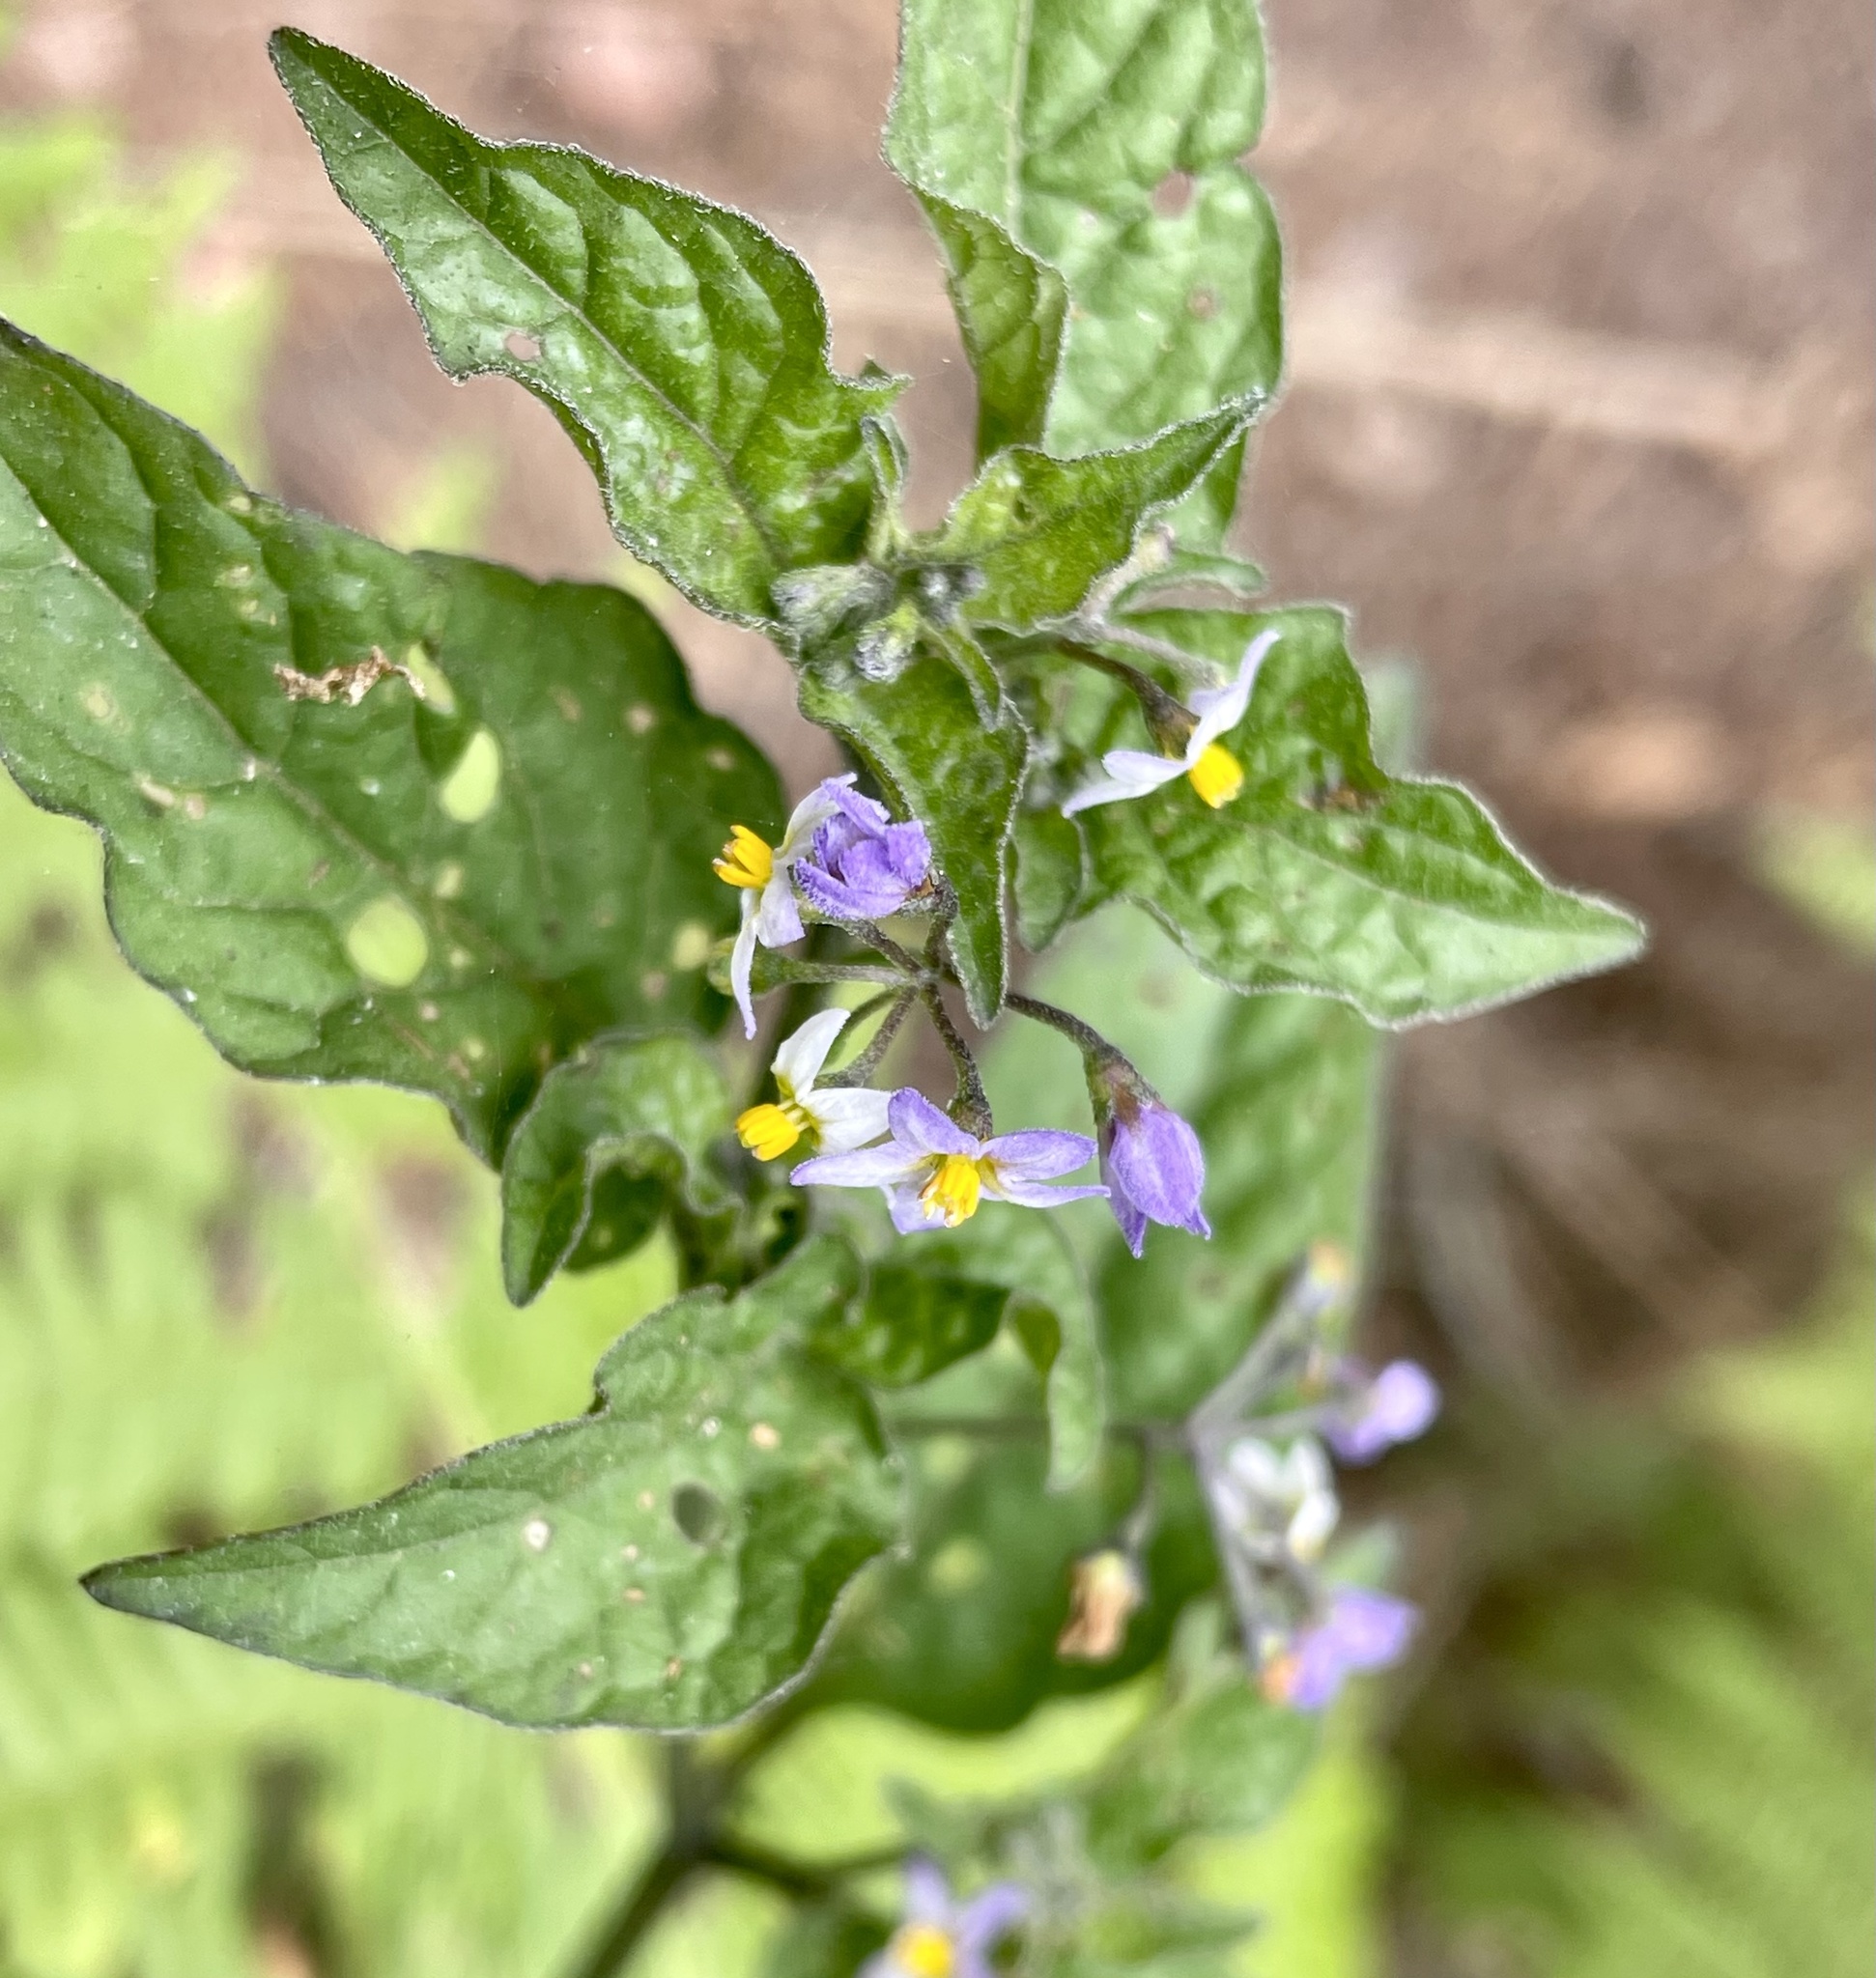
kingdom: Plantae
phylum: Tracheophyta
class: Magnoliopsida
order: Solanales
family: Solanaceae
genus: Solanum
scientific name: Solanum americanum
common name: American black nightshade
